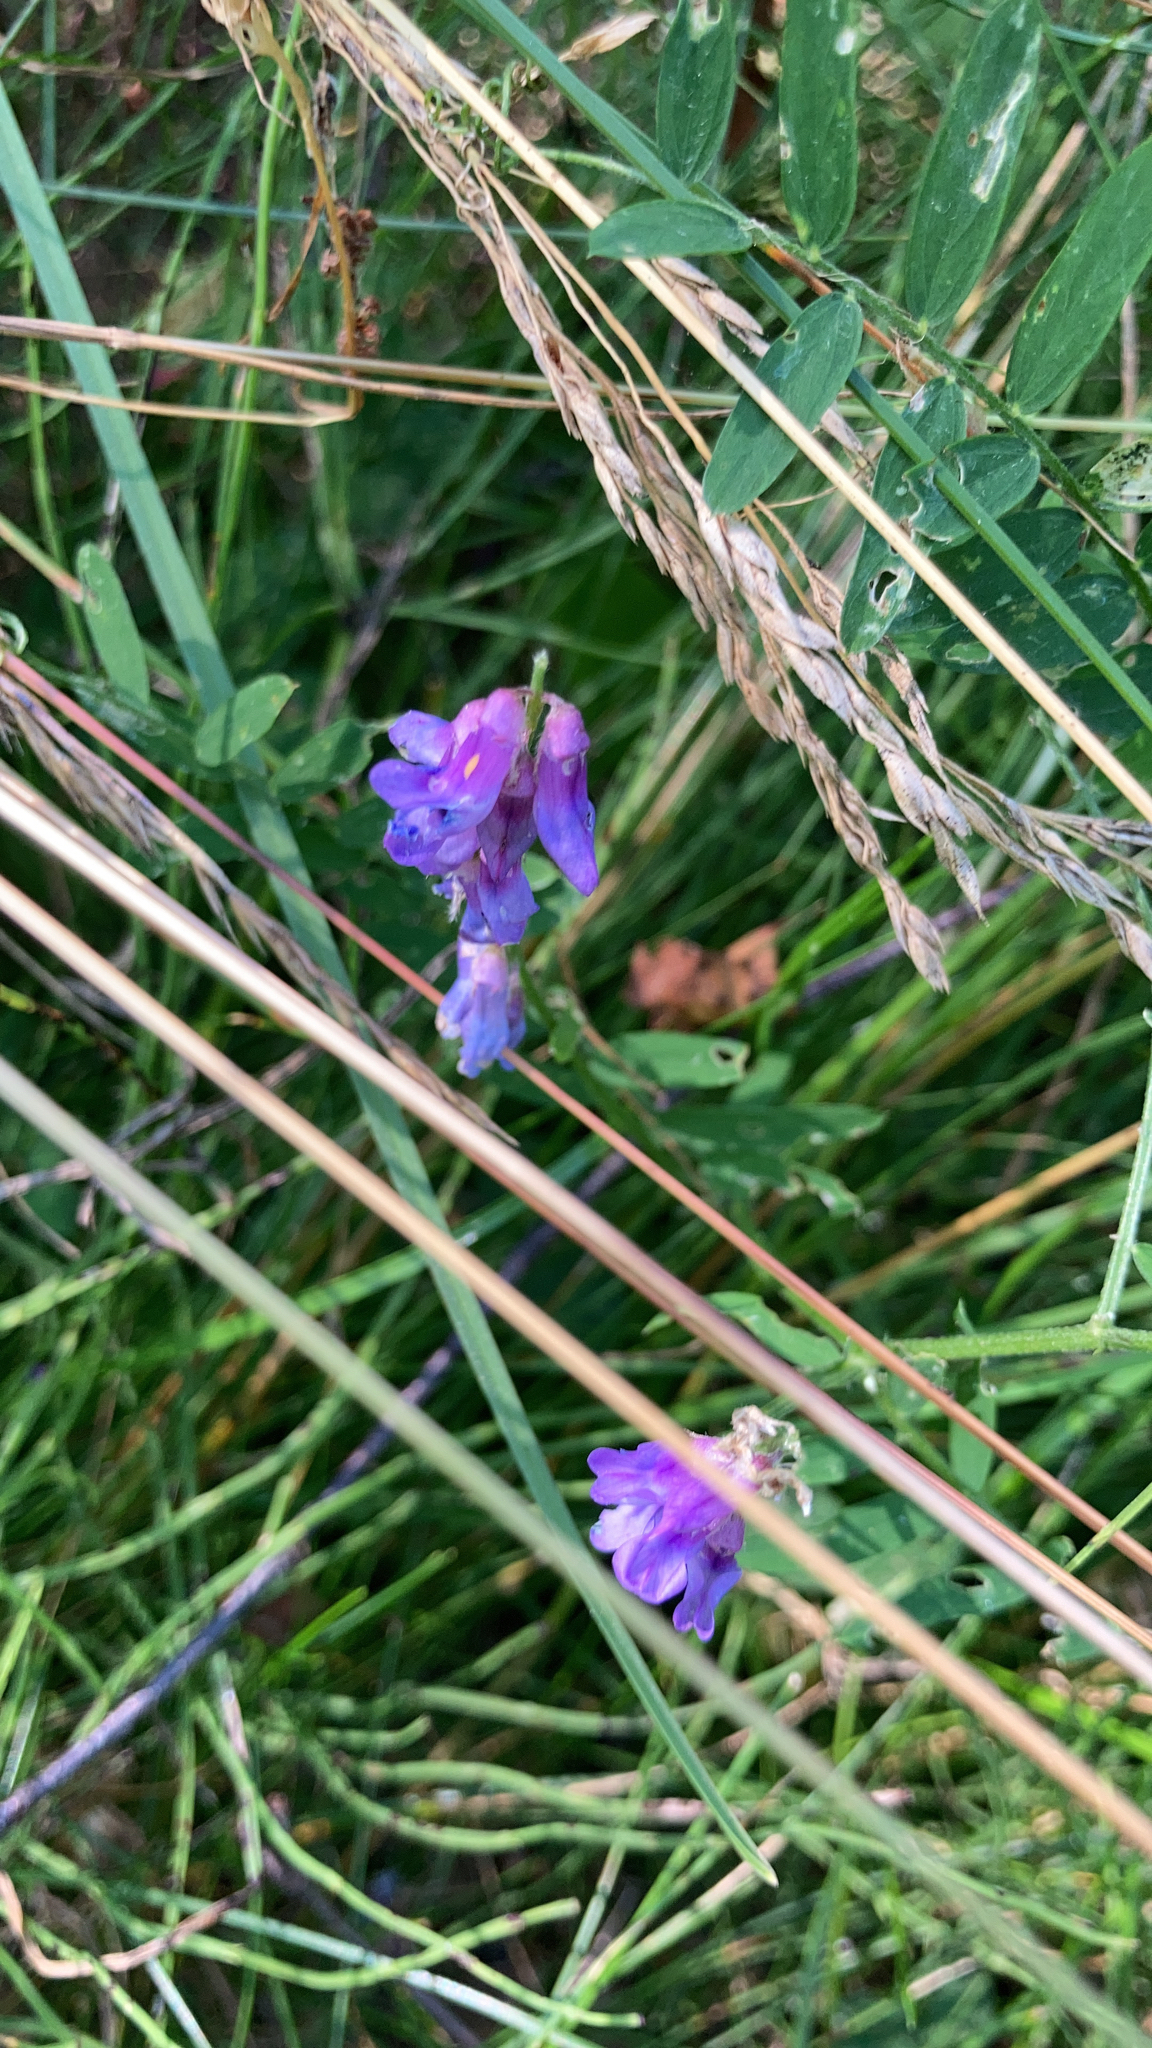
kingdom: Plantae
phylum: Tracheophyta
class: Magnoliopsida
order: Fabales
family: Fabaceae
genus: Vicia
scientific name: Vicia cracca
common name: Bird vetch
